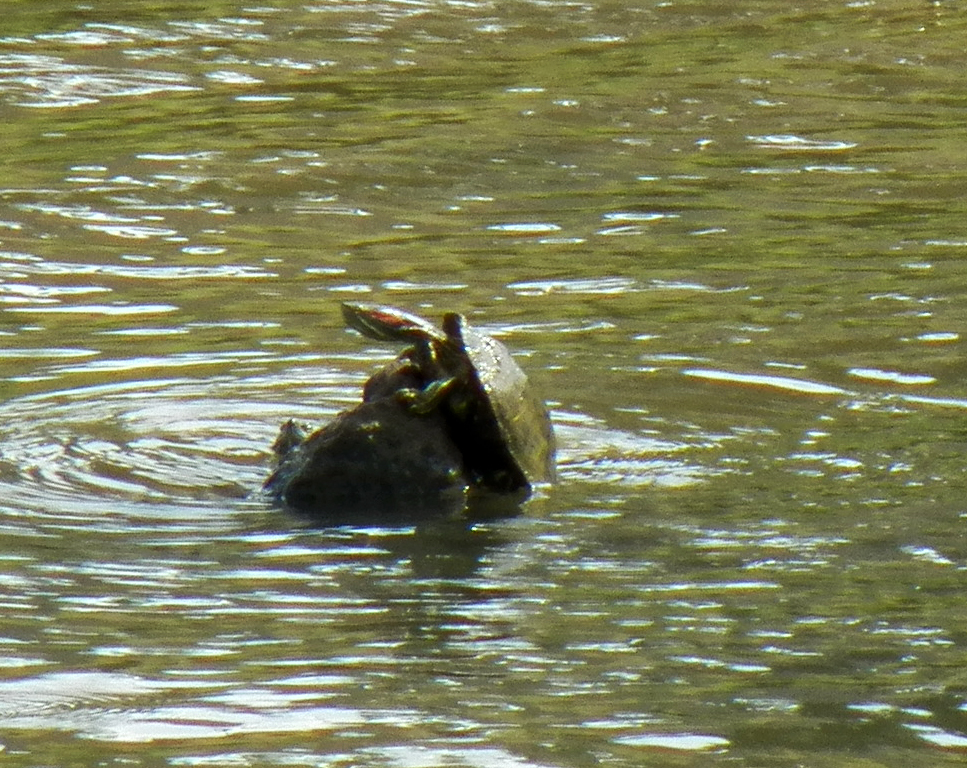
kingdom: Animalia
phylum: Chordata
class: Testudines
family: Emydidae
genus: Trachemys
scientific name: Trachemys scripta
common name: Slider
